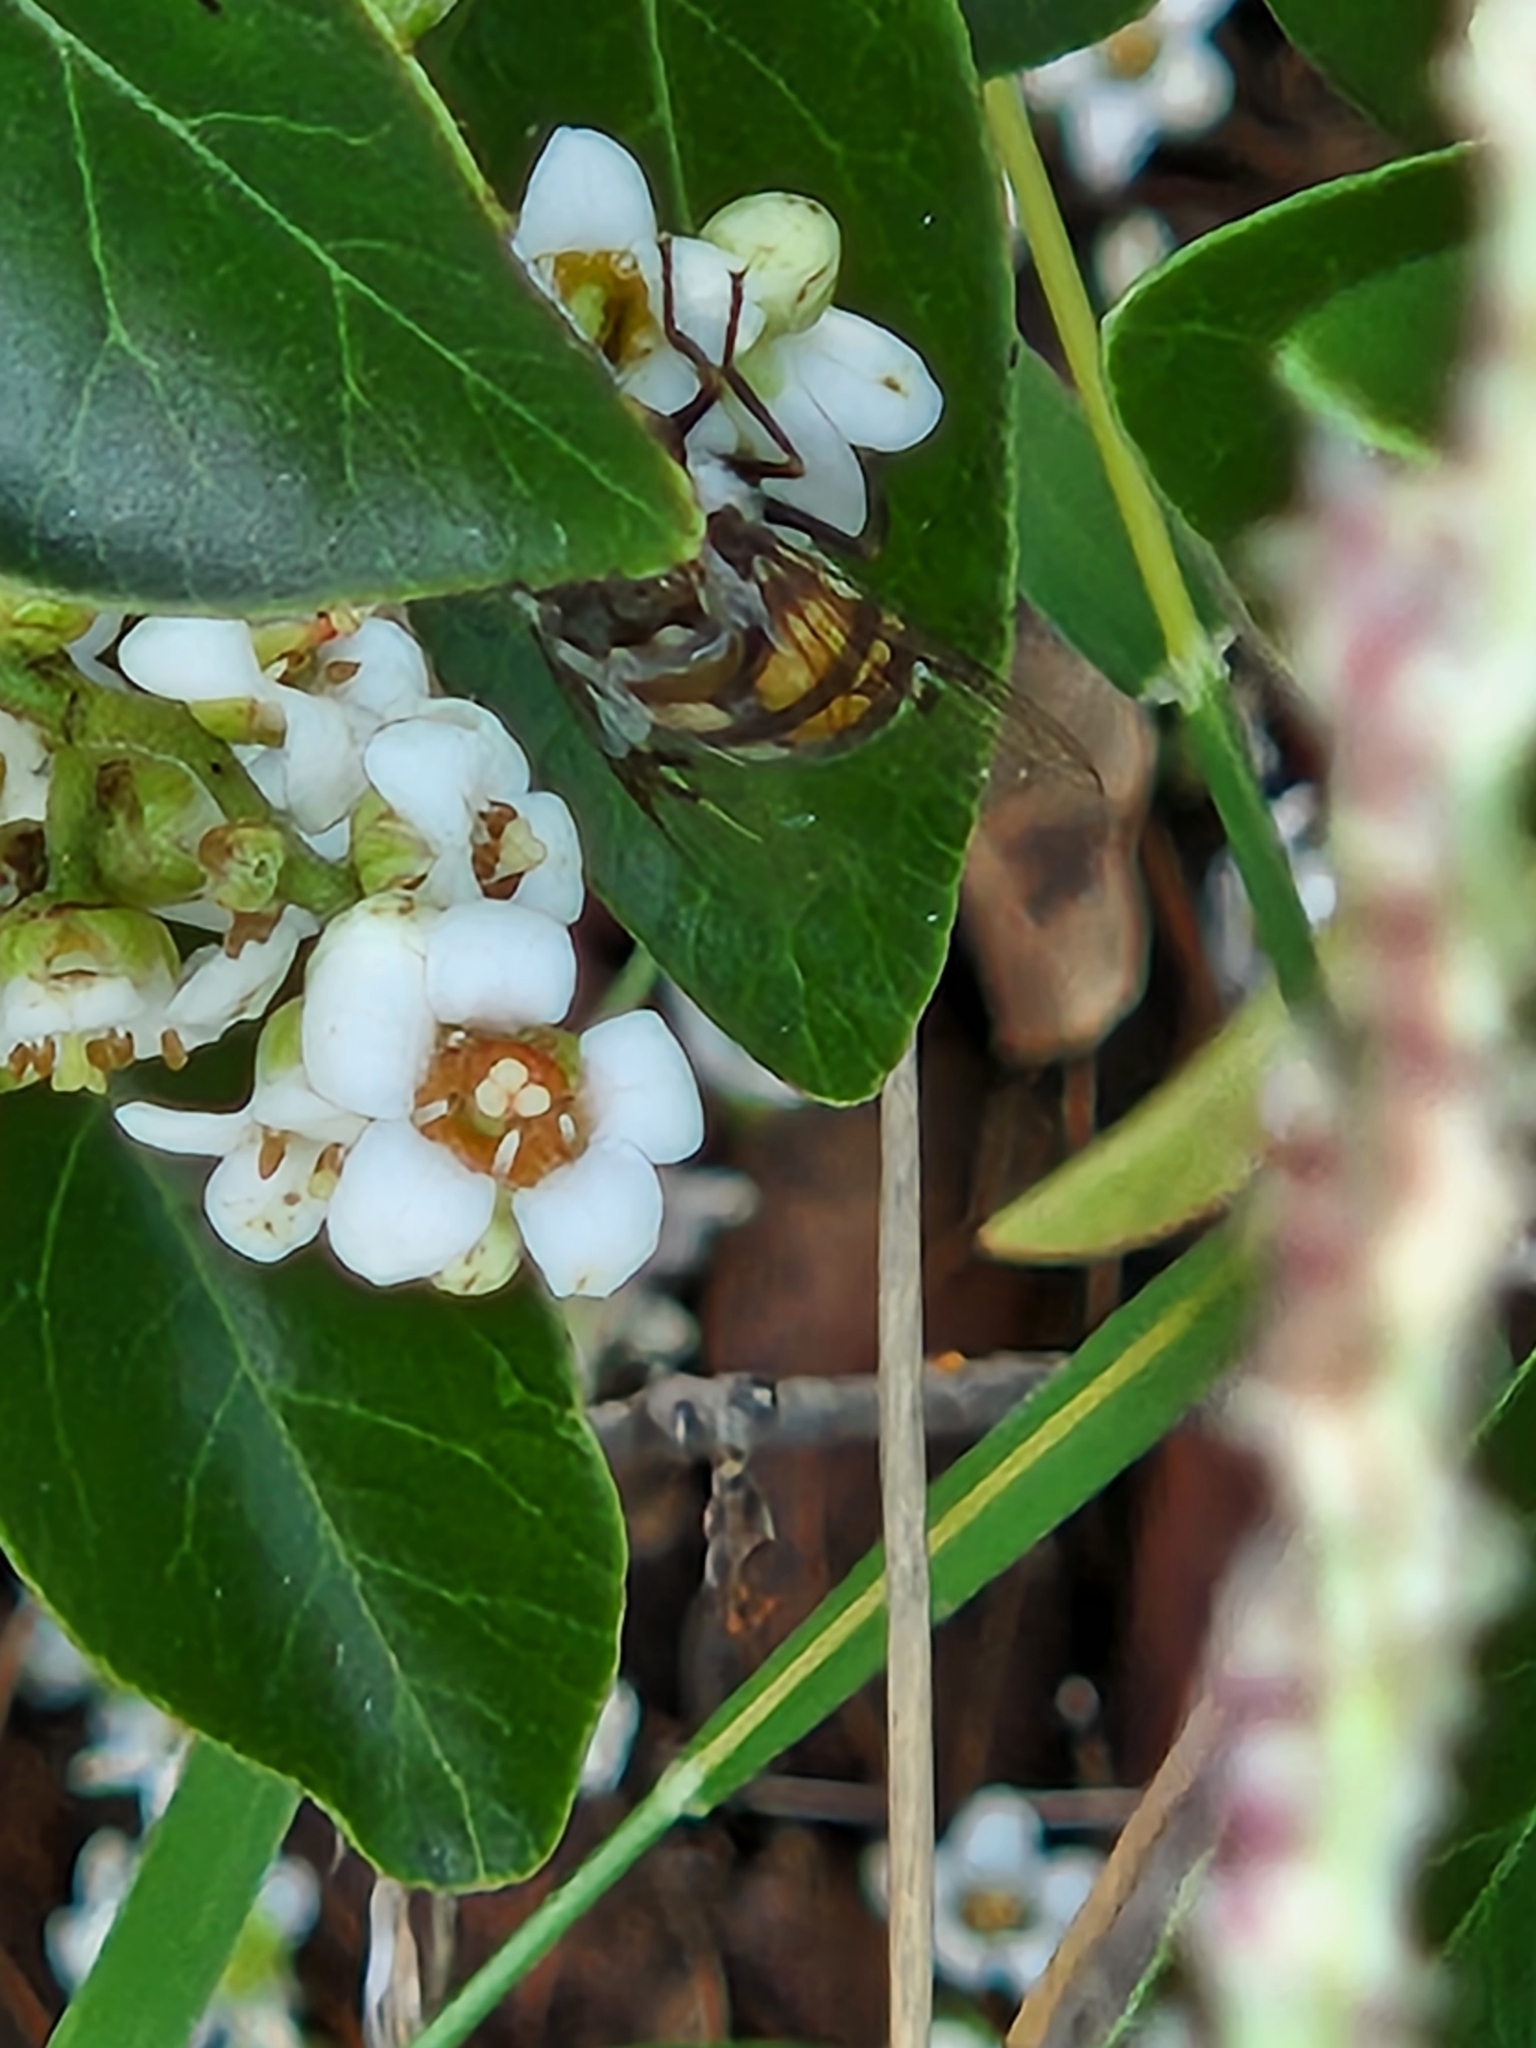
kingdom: Animalia
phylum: Arthropoda
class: Insecta
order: Diptera
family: Syrphidae
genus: Copestylum
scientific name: Copestylum avidum
